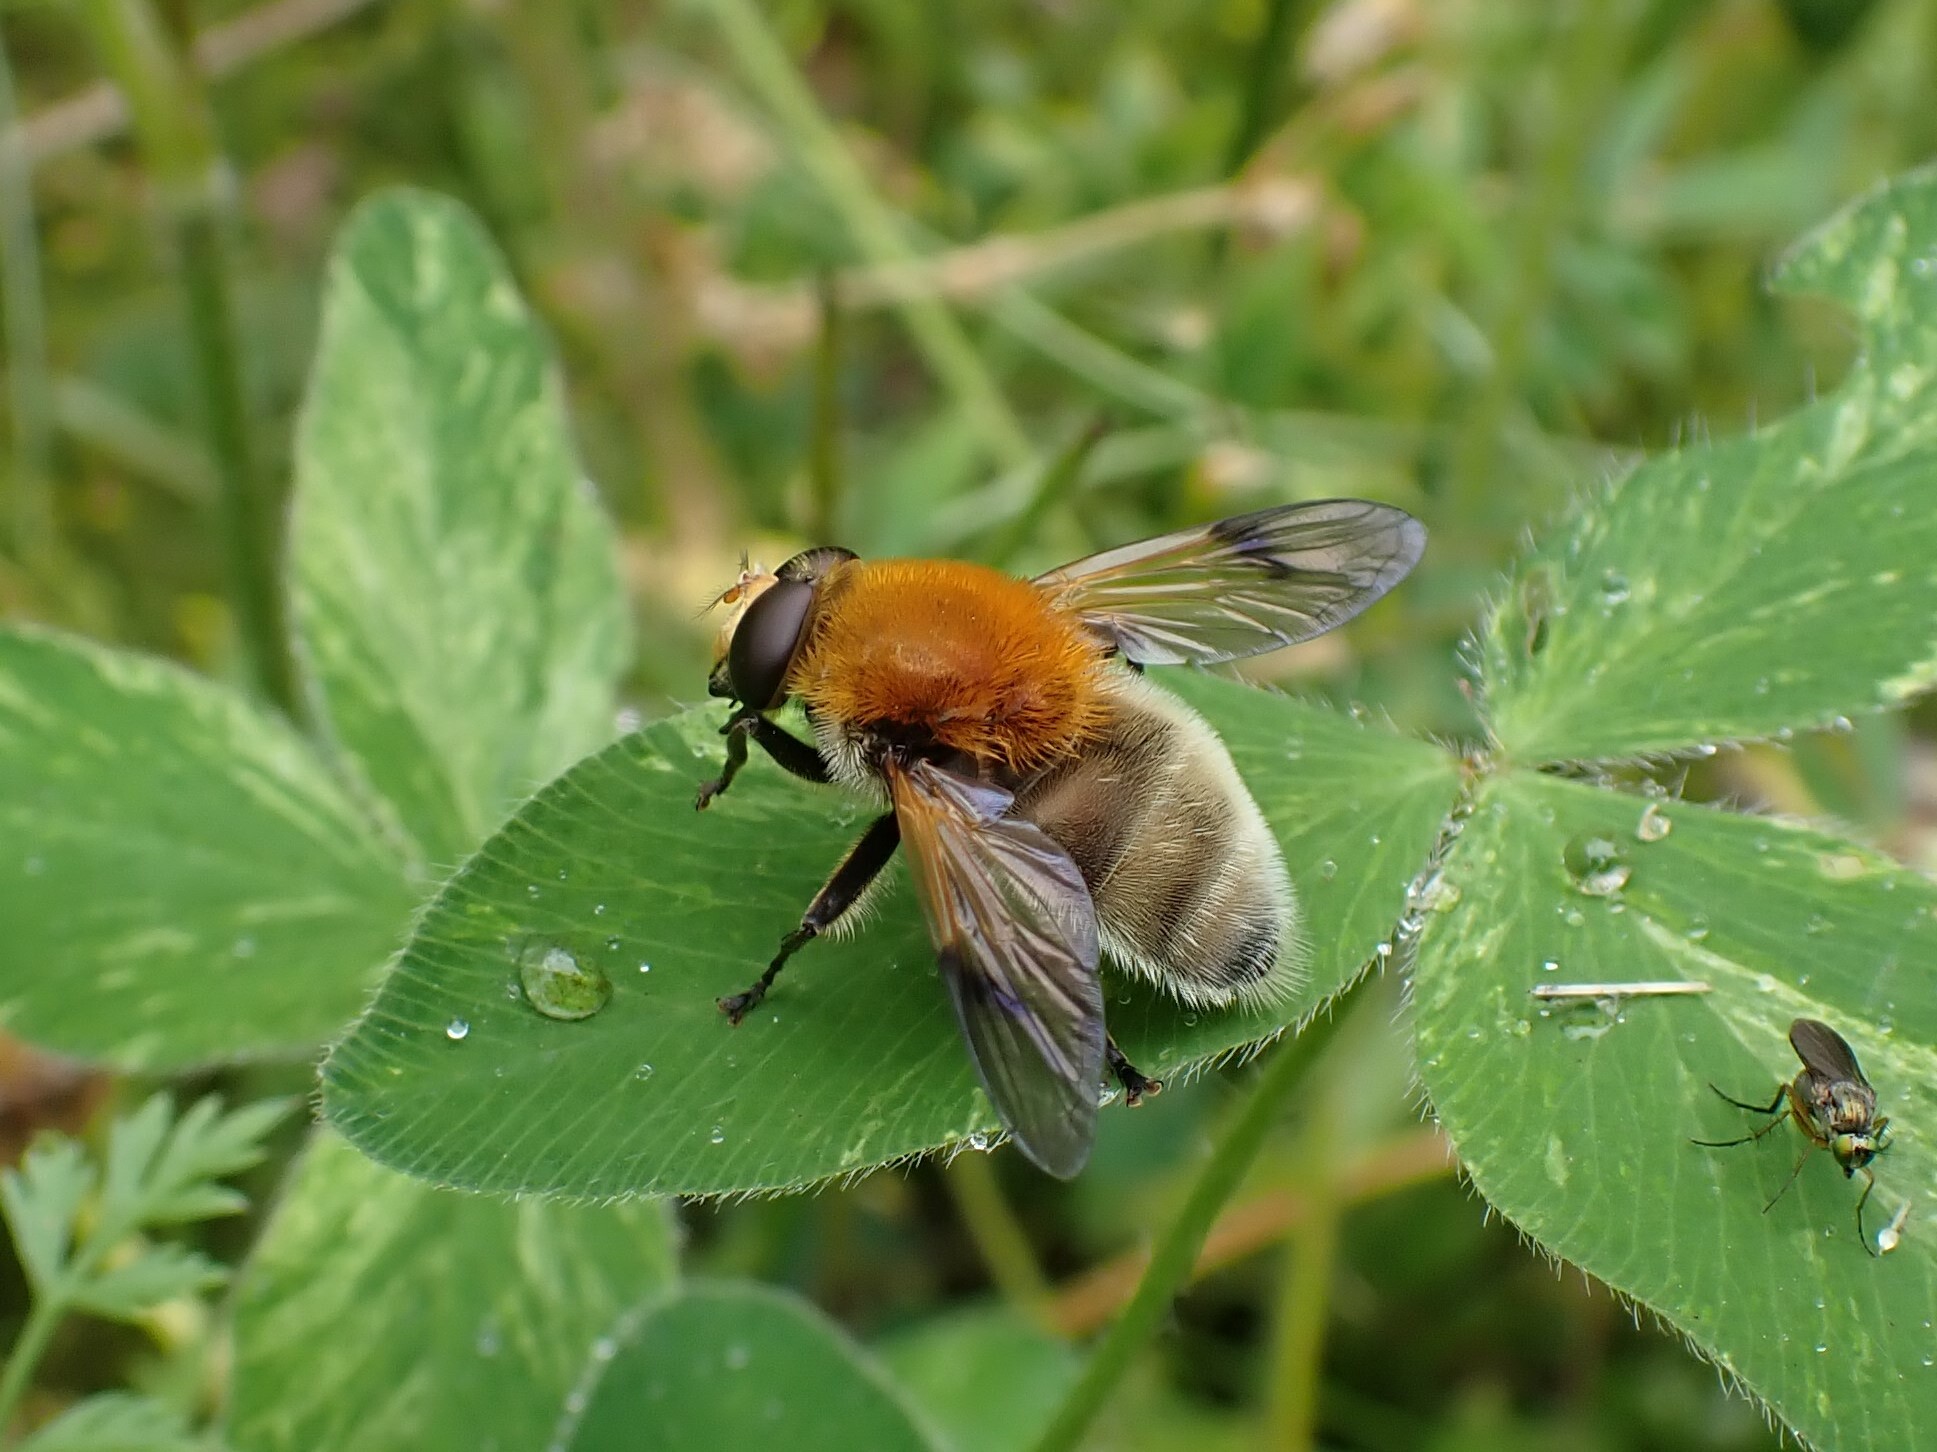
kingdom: Animalia
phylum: Arthropoda
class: Insecta
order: Diptera
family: Syrphidae
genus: Sericomyia
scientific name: Sericomyia superbiens
